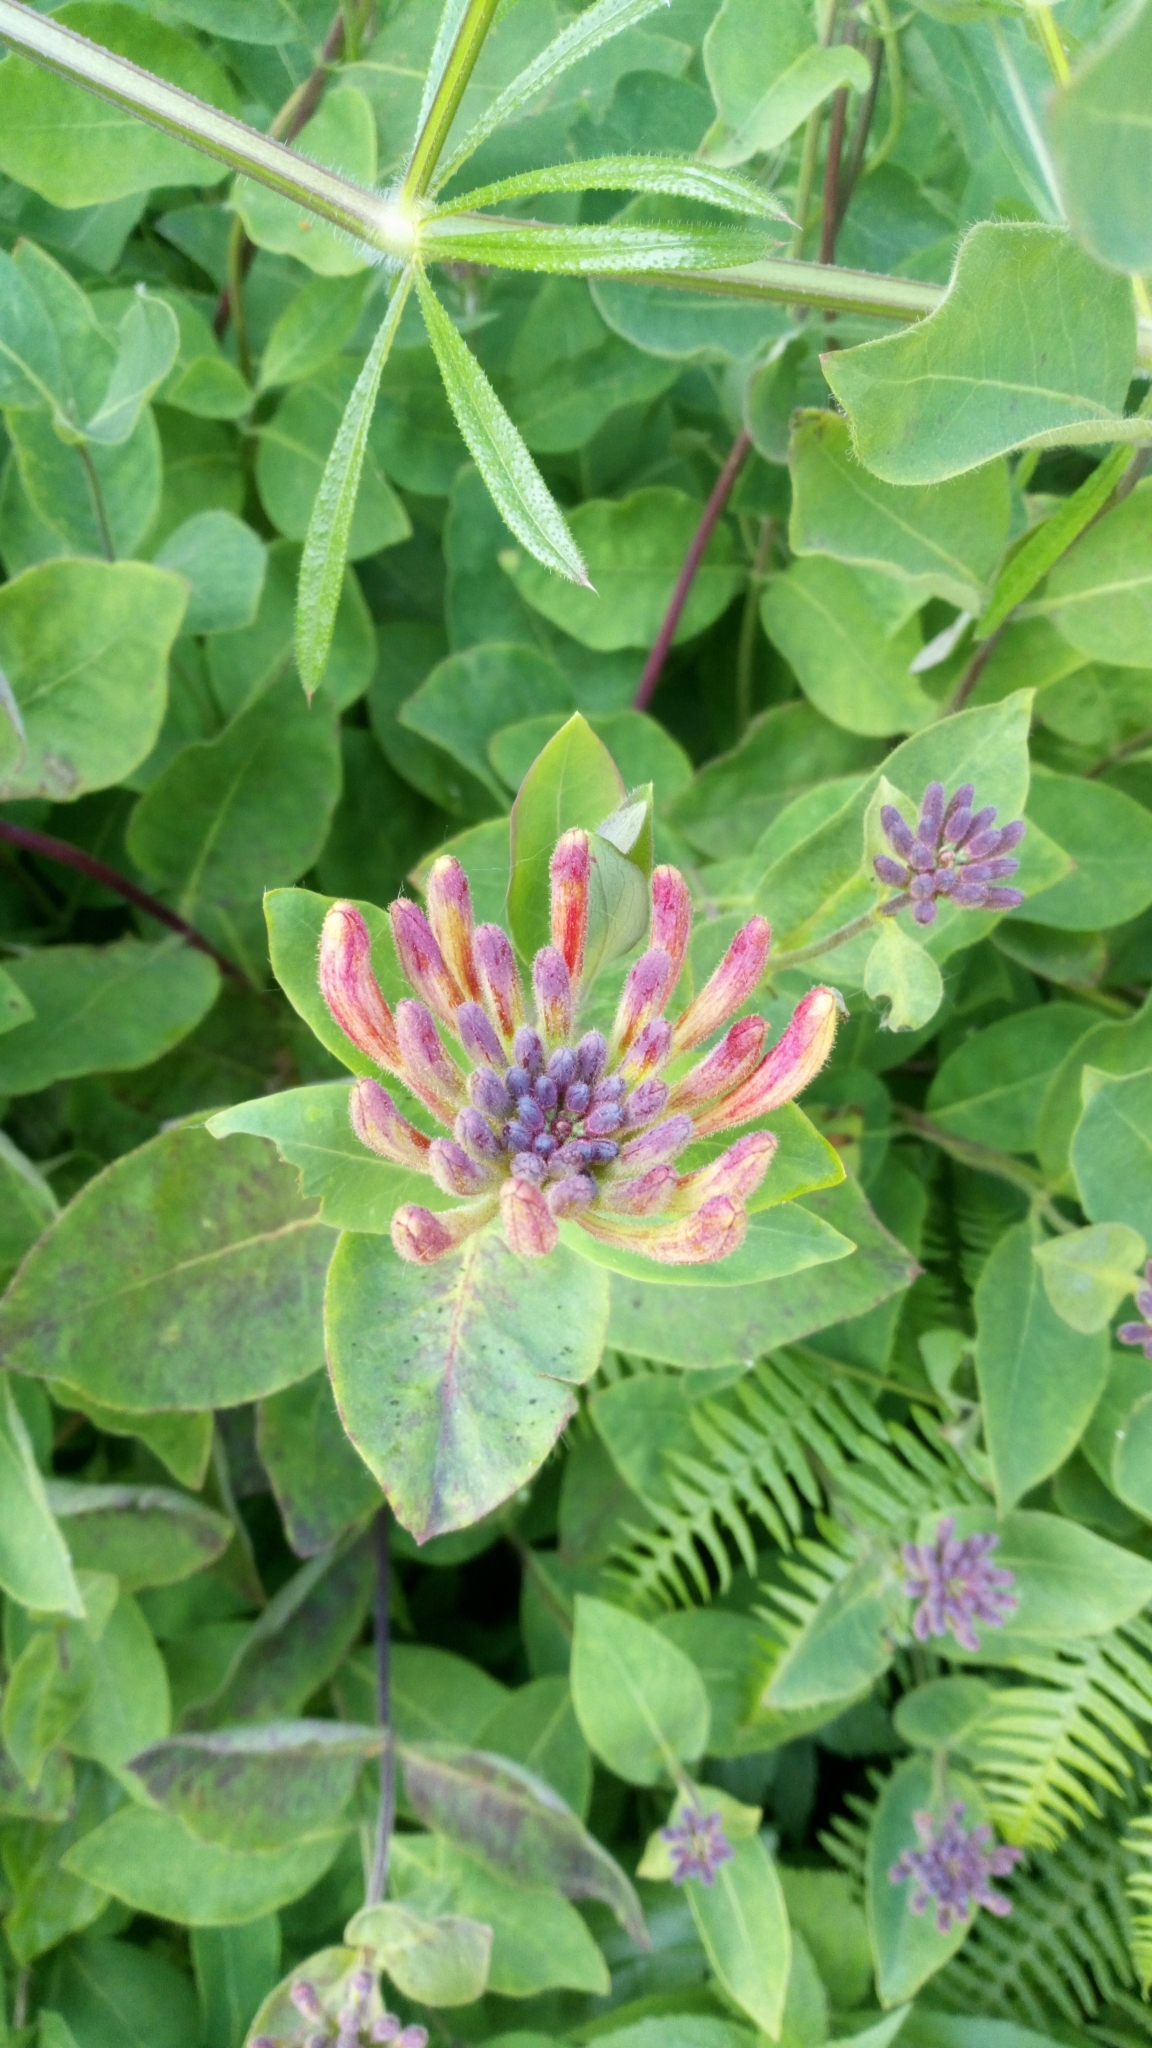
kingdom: Plantae
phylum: Tracheophyta
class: Magnoliopsida
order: Dipsacales
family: Caprifoliaceae
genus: Lonicera
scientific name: Lonicera periclymenum
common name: European honeysuckle
